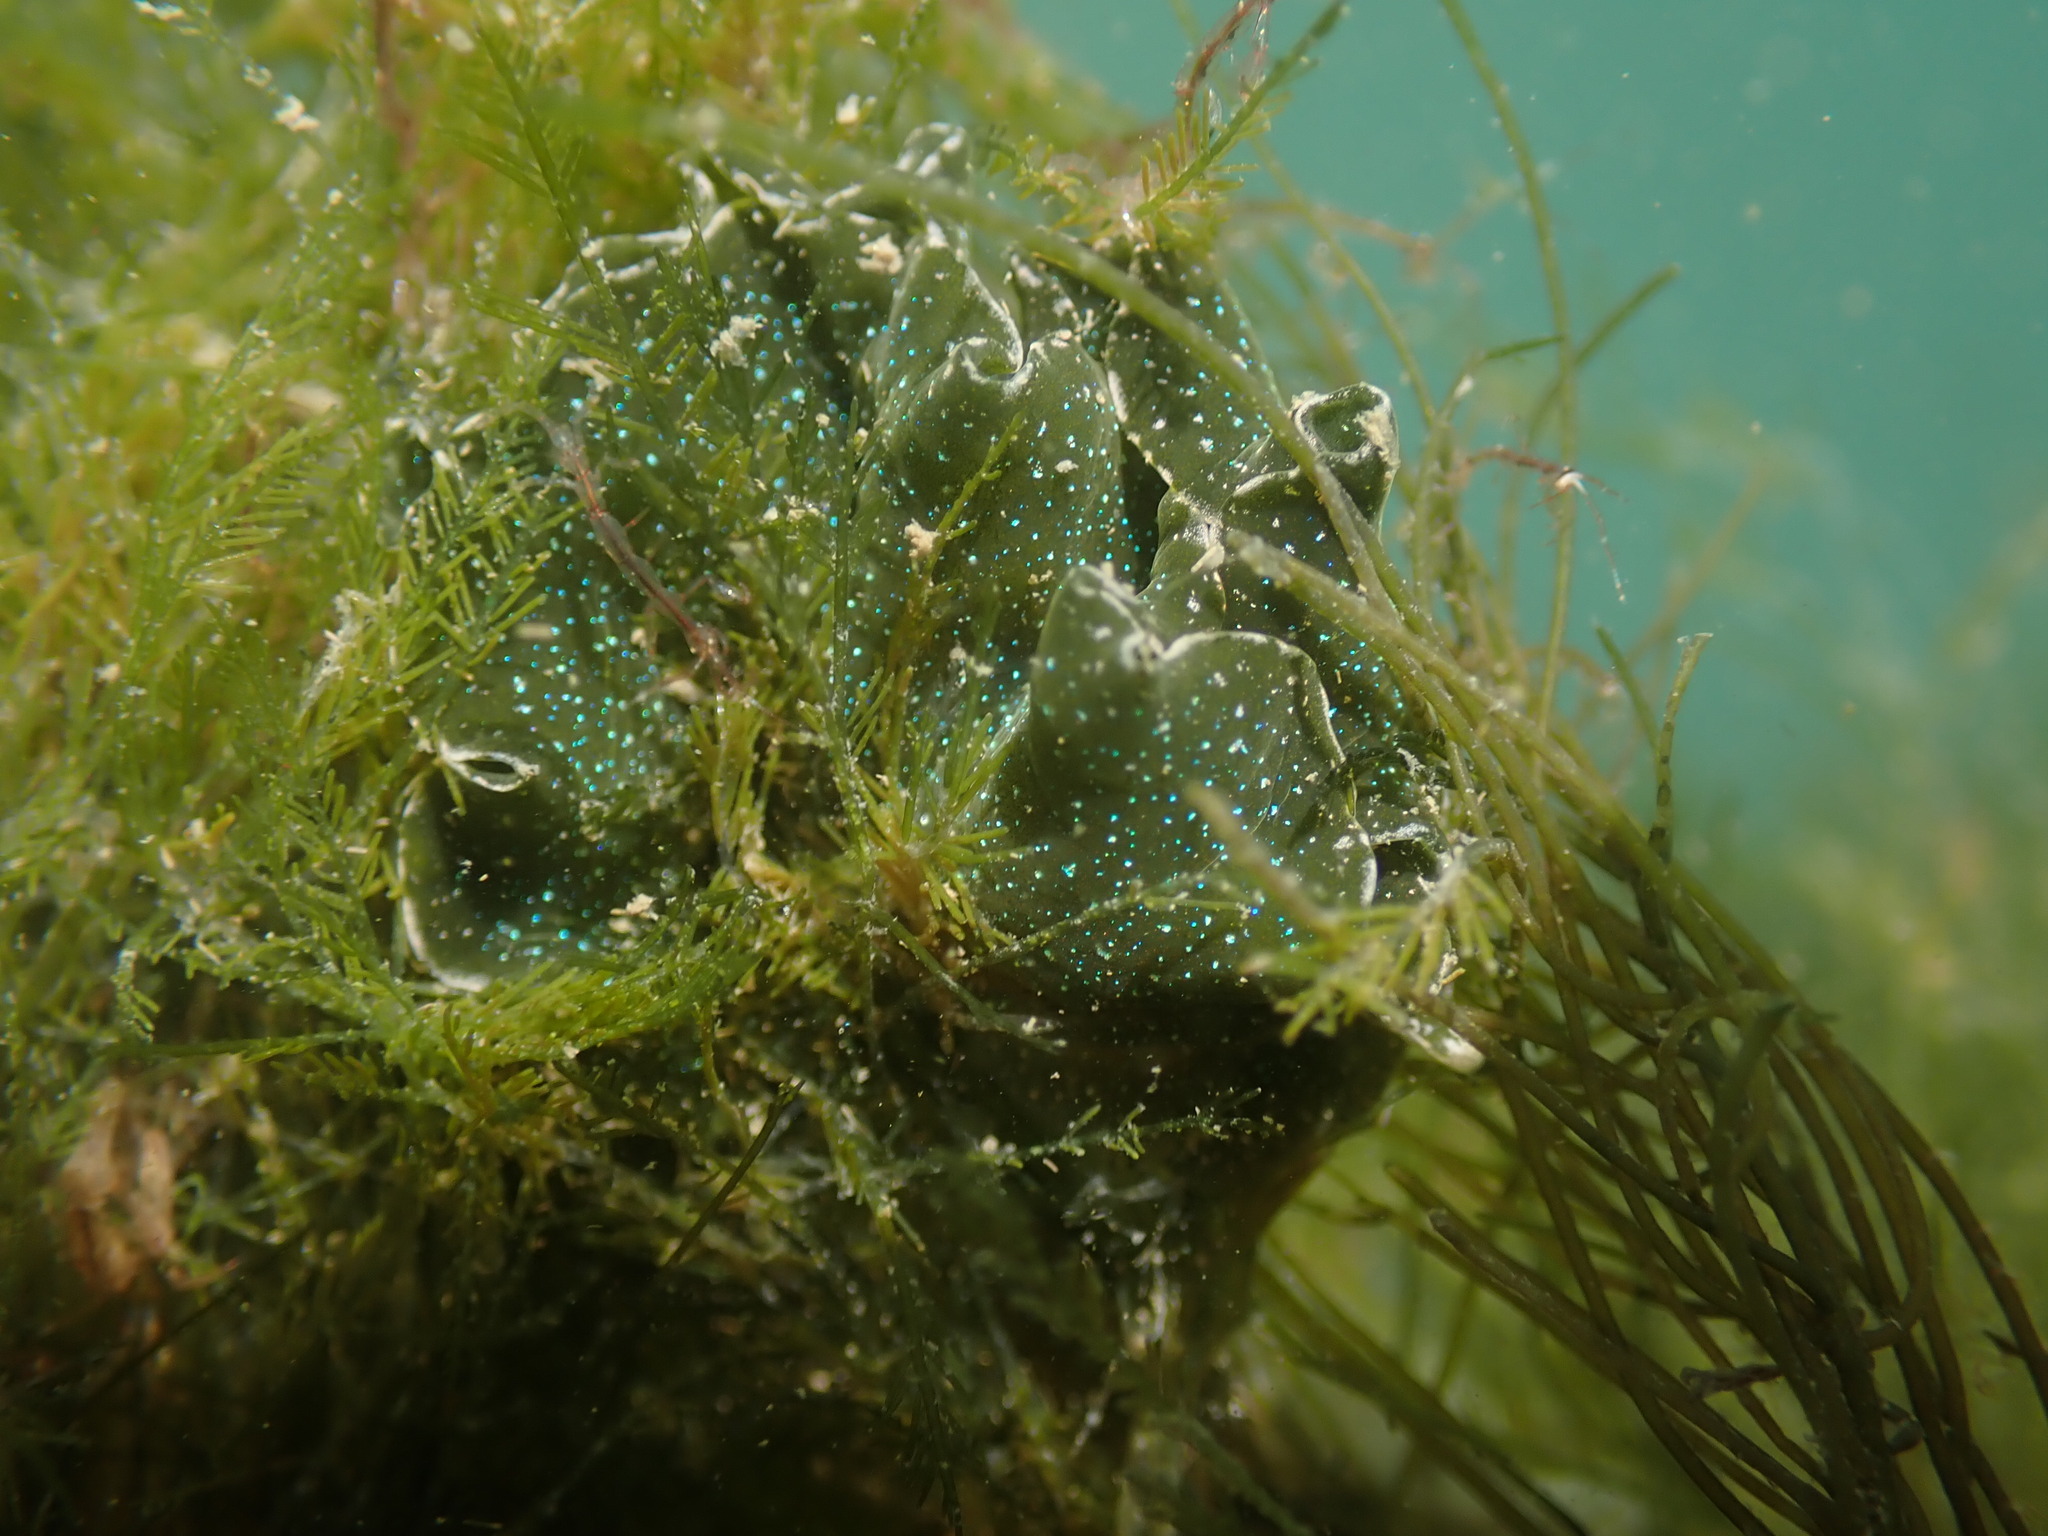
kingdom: Animalia
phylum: Mollusca
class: Gastropoda
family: Plakobranchidae
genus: Elysia
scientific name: Elysia hedgpethi
